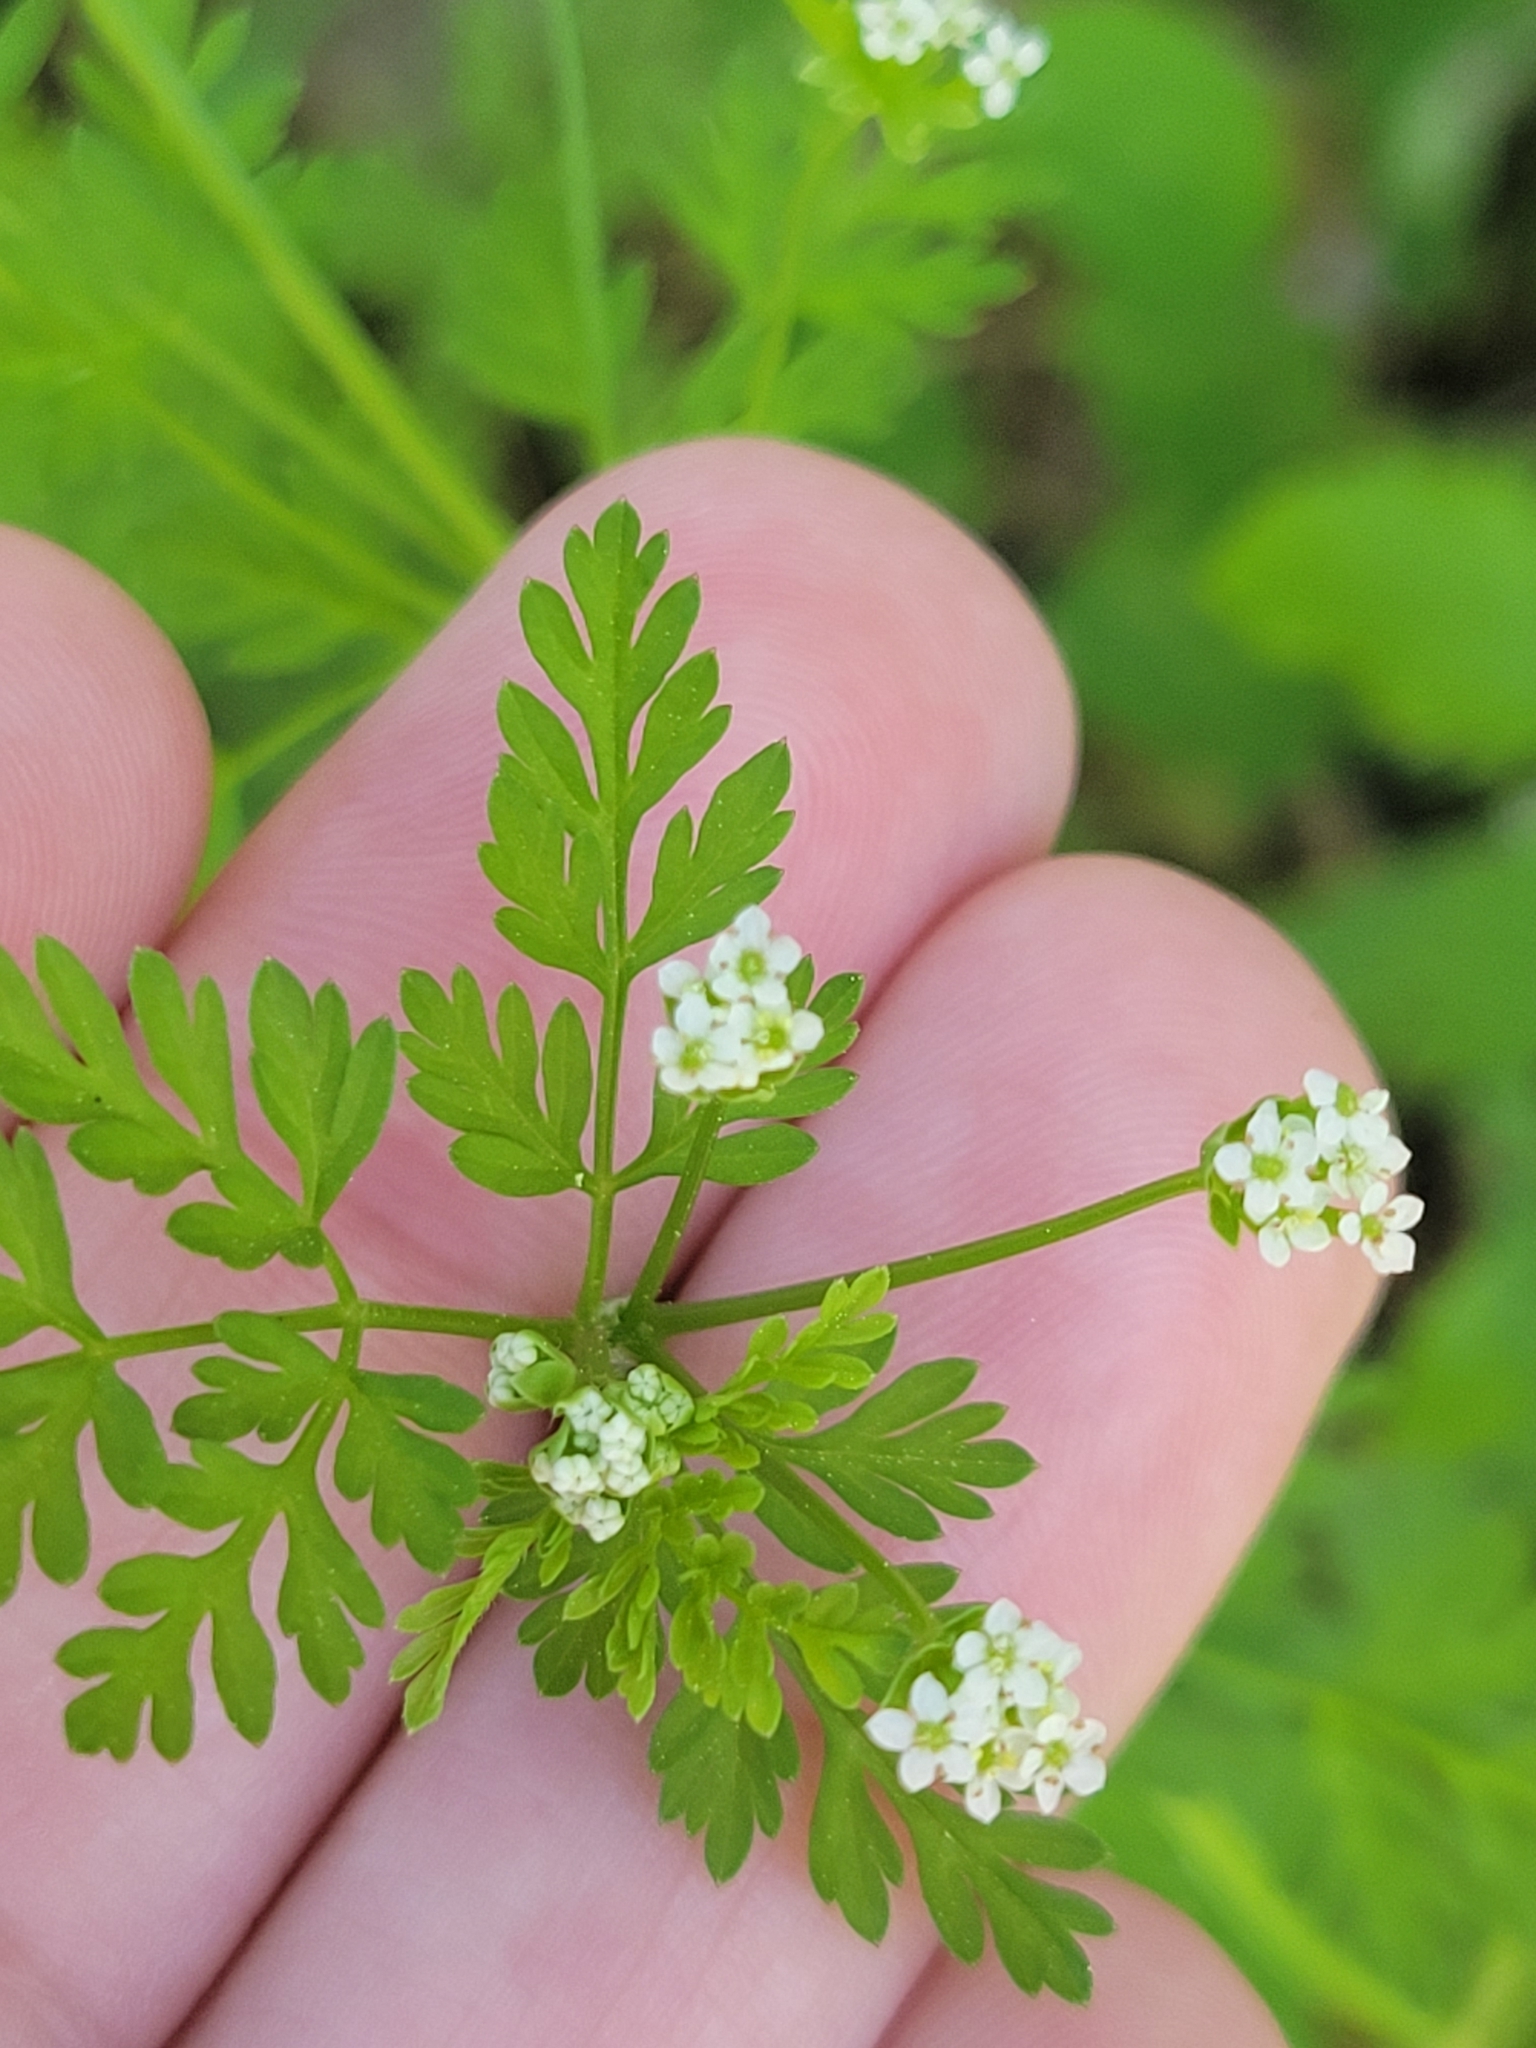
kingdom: Plantae
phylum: Tracheophyta
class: Magnoliopsida
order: Apiales
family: Apiaceae
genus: Chaerophyllum
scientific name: Chaerophyllum tainturieri
